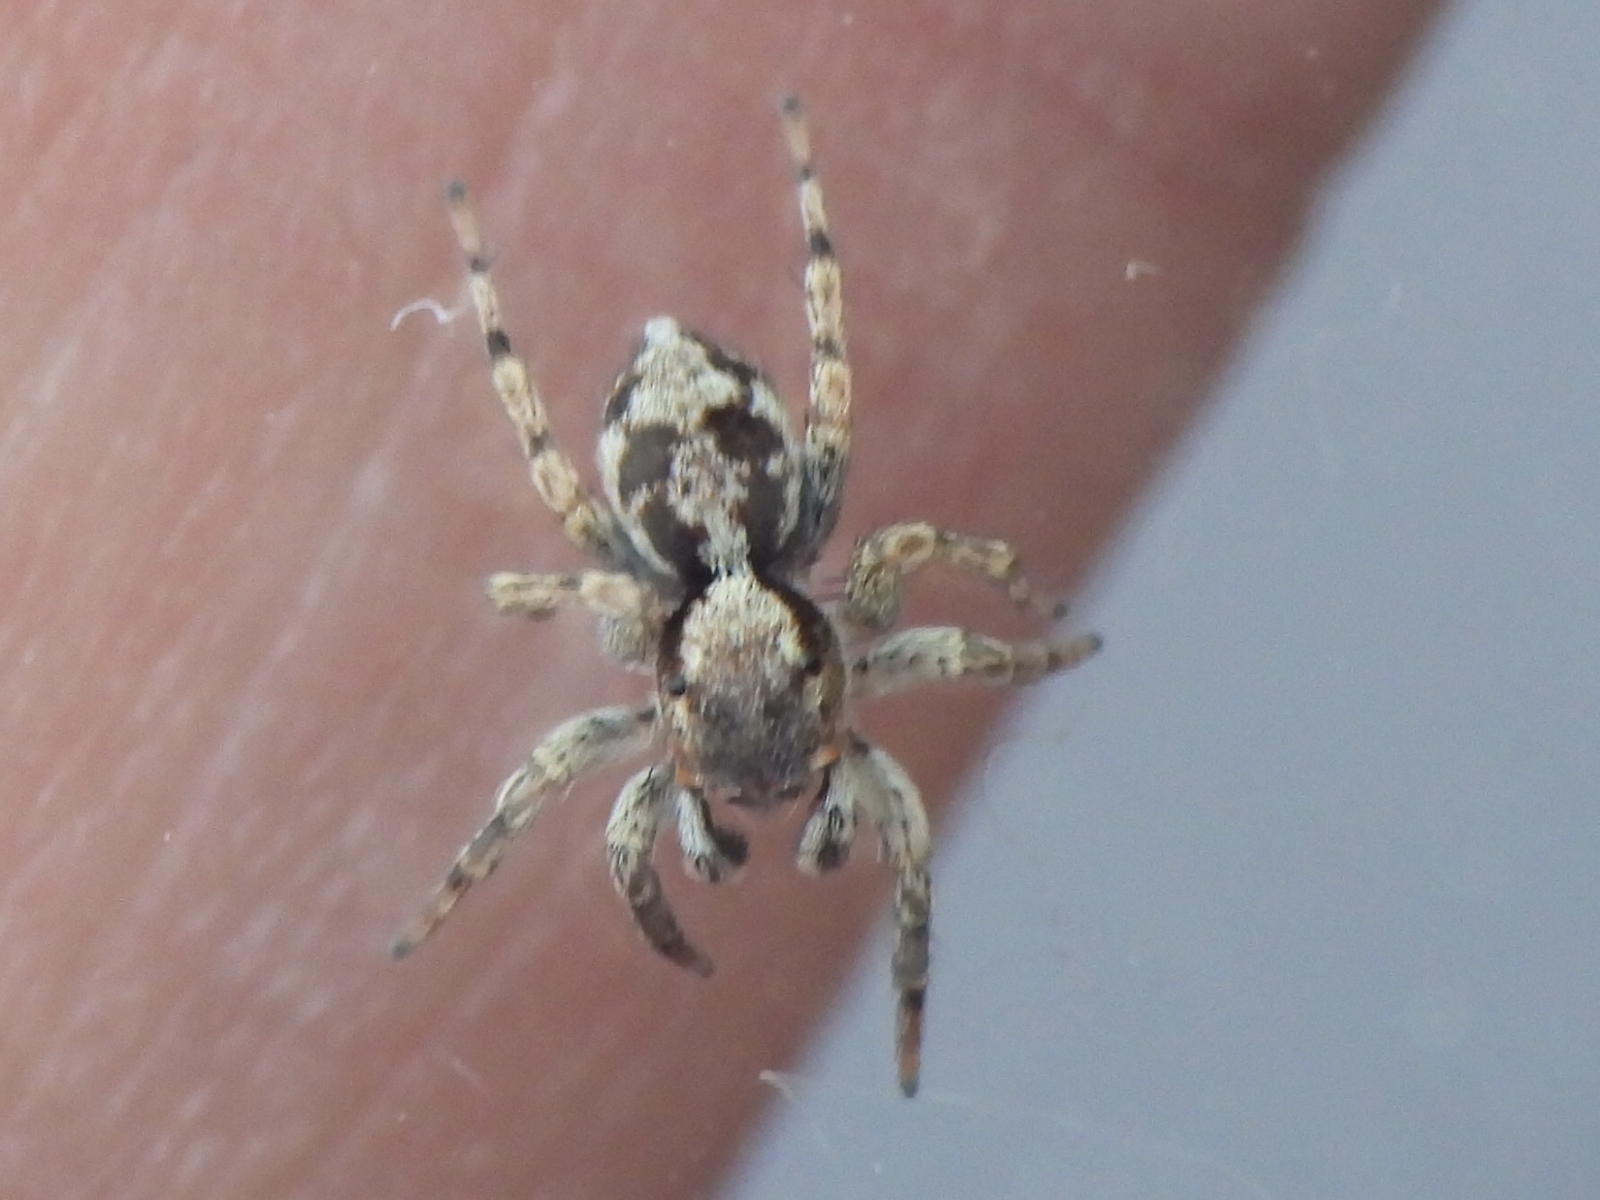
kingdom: Animalia
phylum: Arthropoda
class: Arachnida
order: Araneae
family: Salticidae
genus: Naphrys
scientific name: Naphrys pulex
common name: Flea jumping spider
